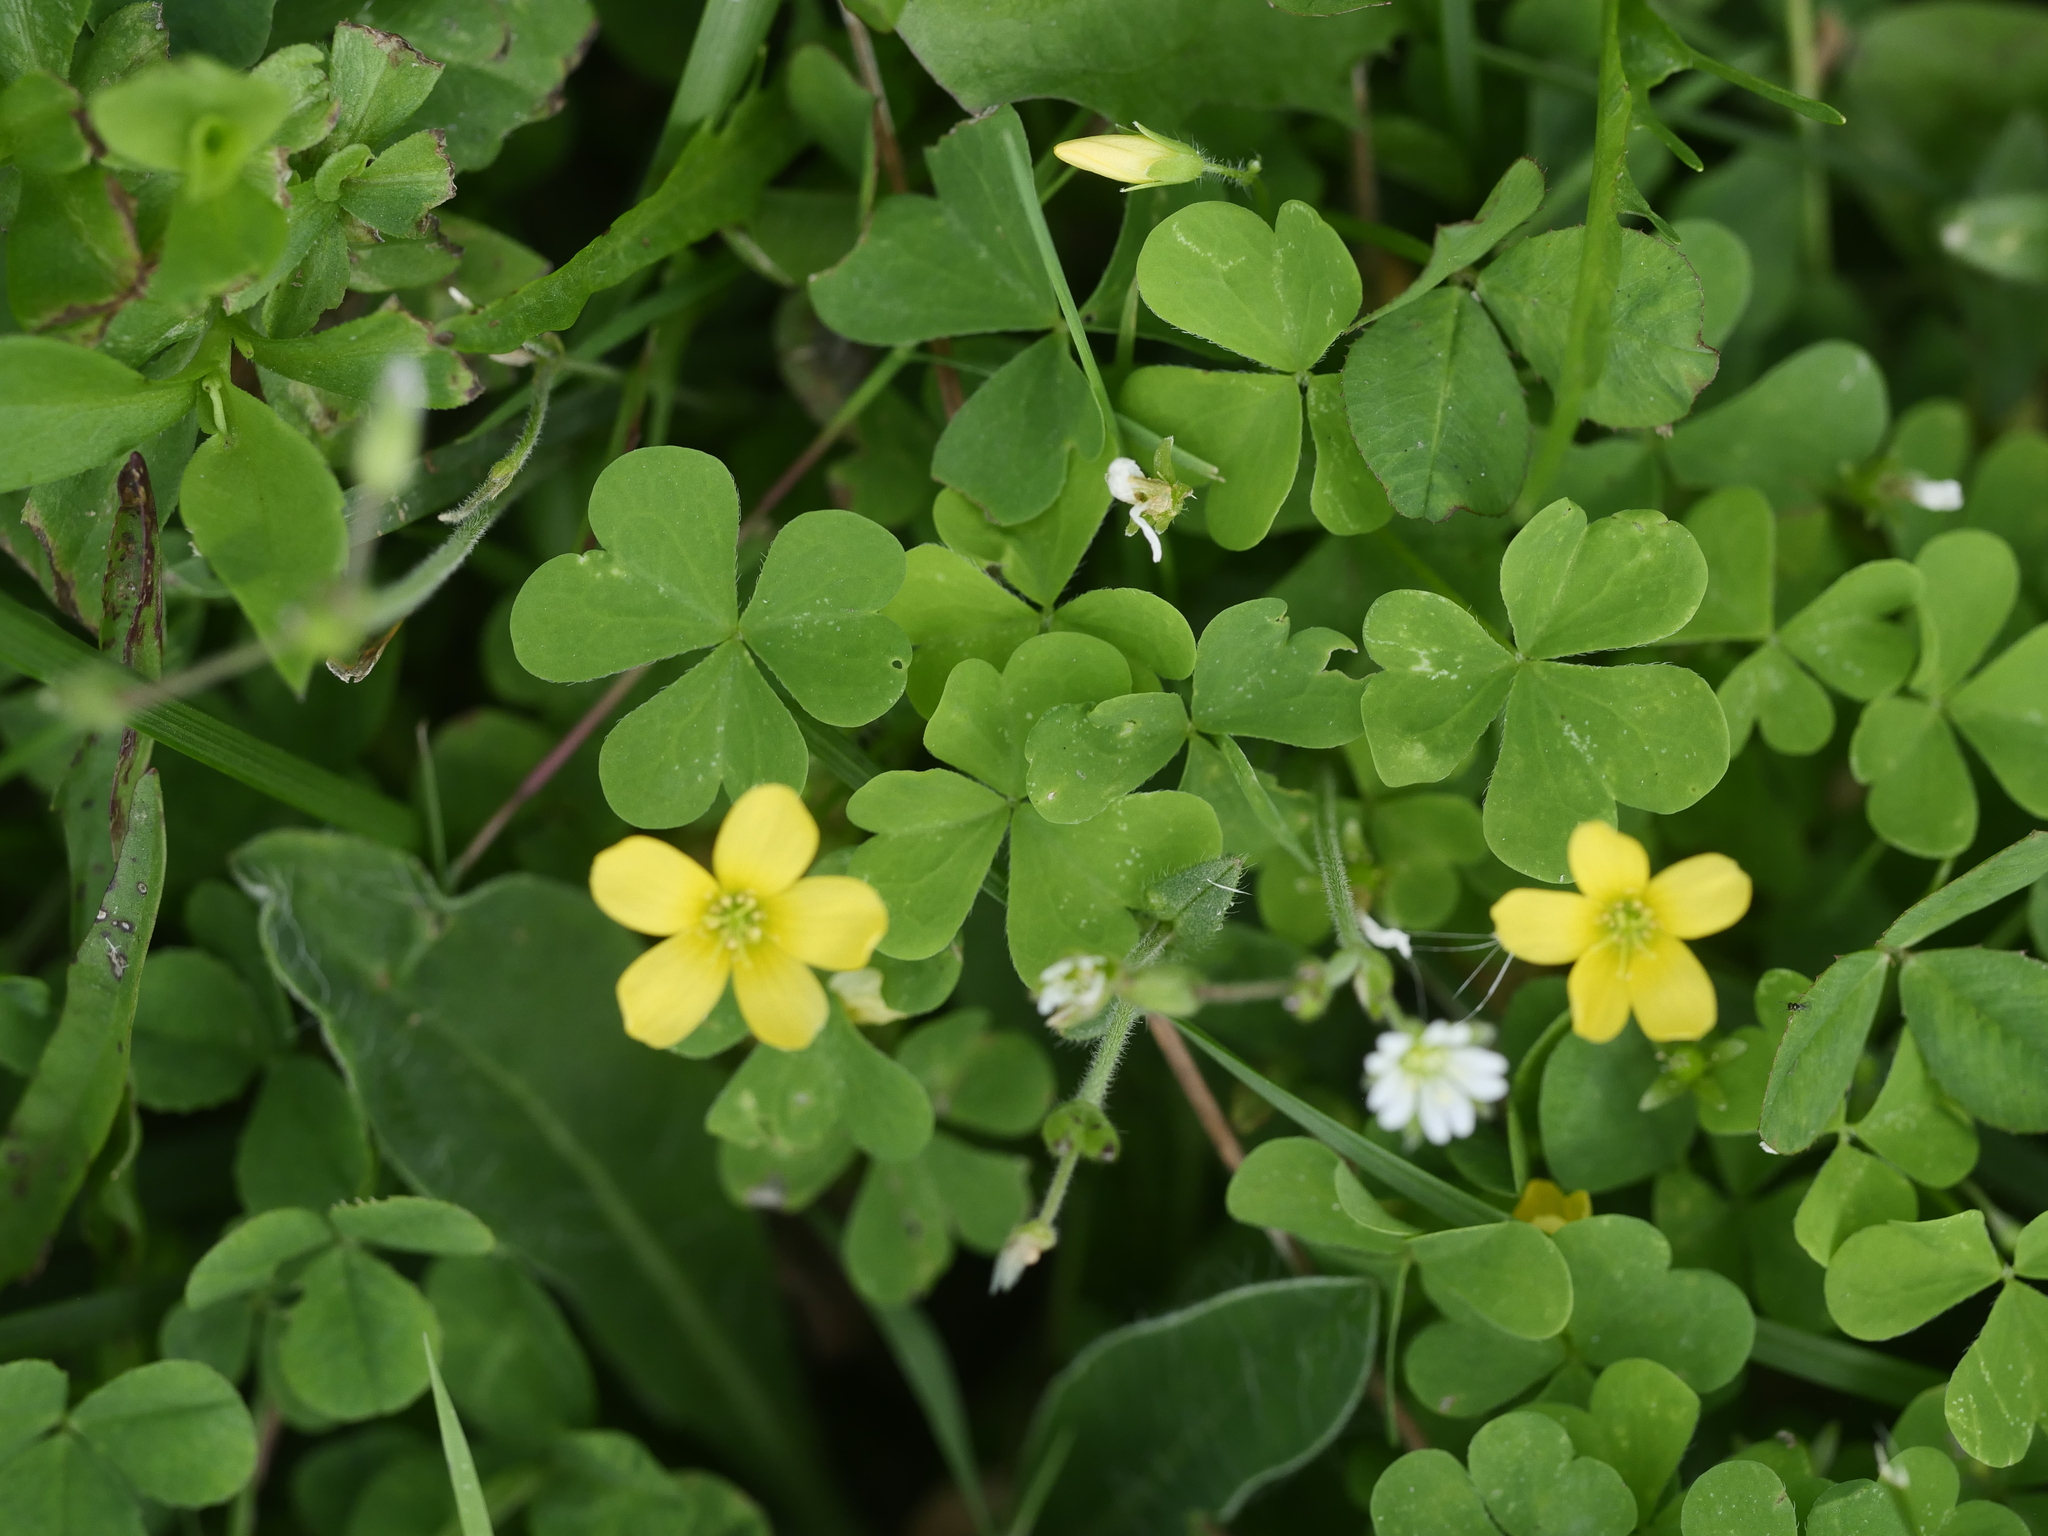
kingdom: Plantae
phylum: Tracheophyta
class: Magnoliopsida
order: Oxalidales
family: Oxalidaceae
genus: Oxalis
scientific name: Oxalis stricta
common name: Upright yellow-sorrel
